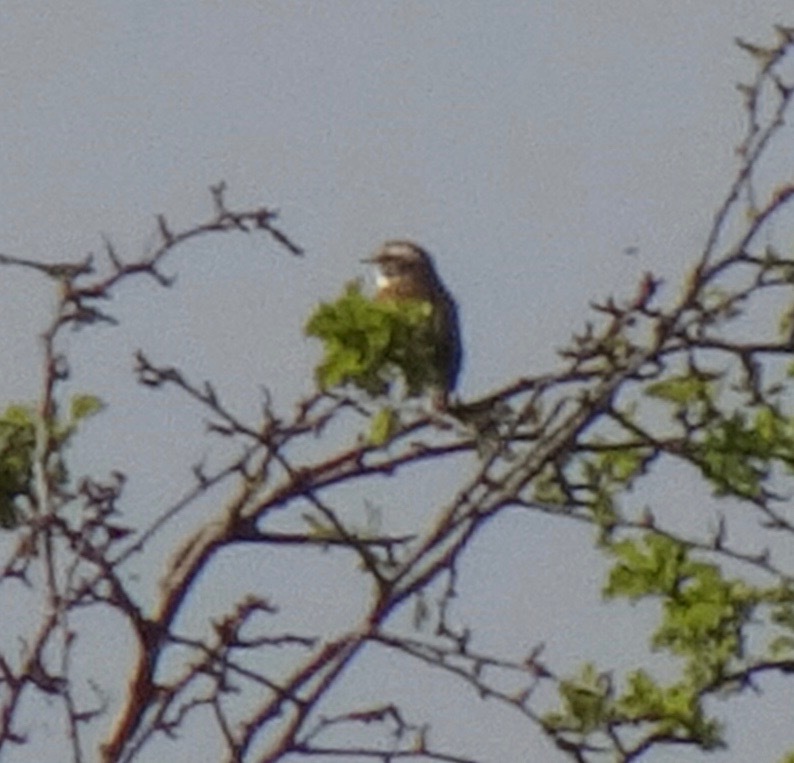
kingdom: Animalia
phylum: Chordata
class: Aves
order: Passeriformes
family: Muscicapidae
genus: Saxicola
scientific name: Saxicola rubetra
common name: Whinchat
